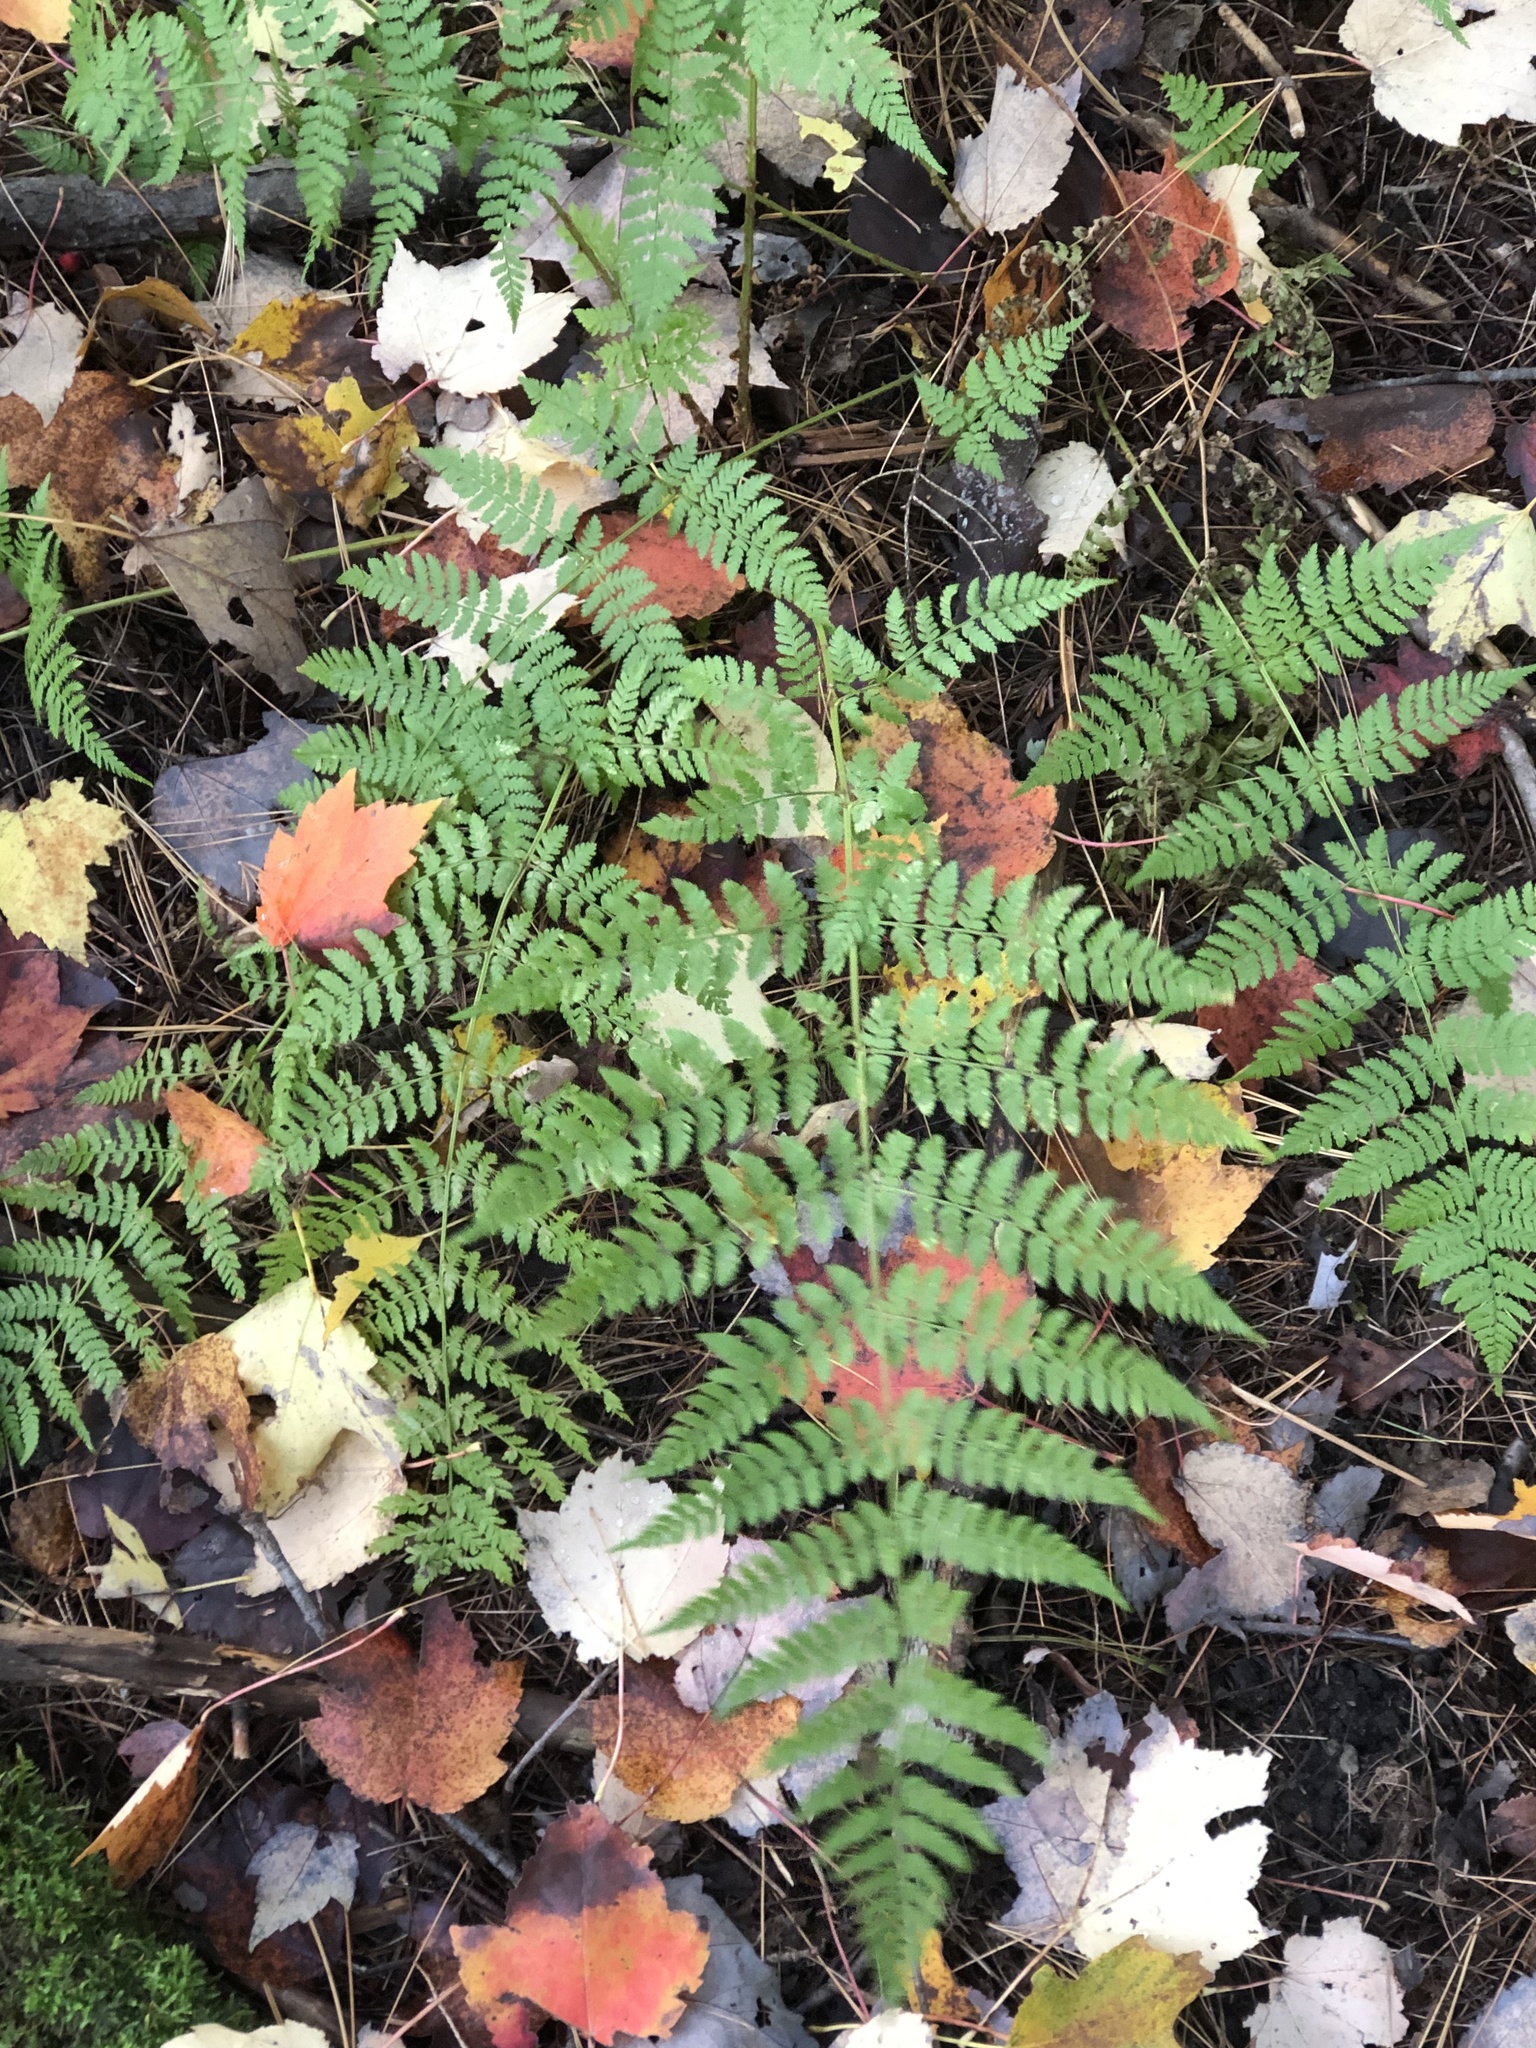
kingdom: Plantae
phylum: Tracheophyta
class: Polypodiopsida
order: Polypodiales
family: Dryopteridaceae
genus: Dryopteris
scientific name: Dryopteris intermedia
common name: Evergreen wood fern
